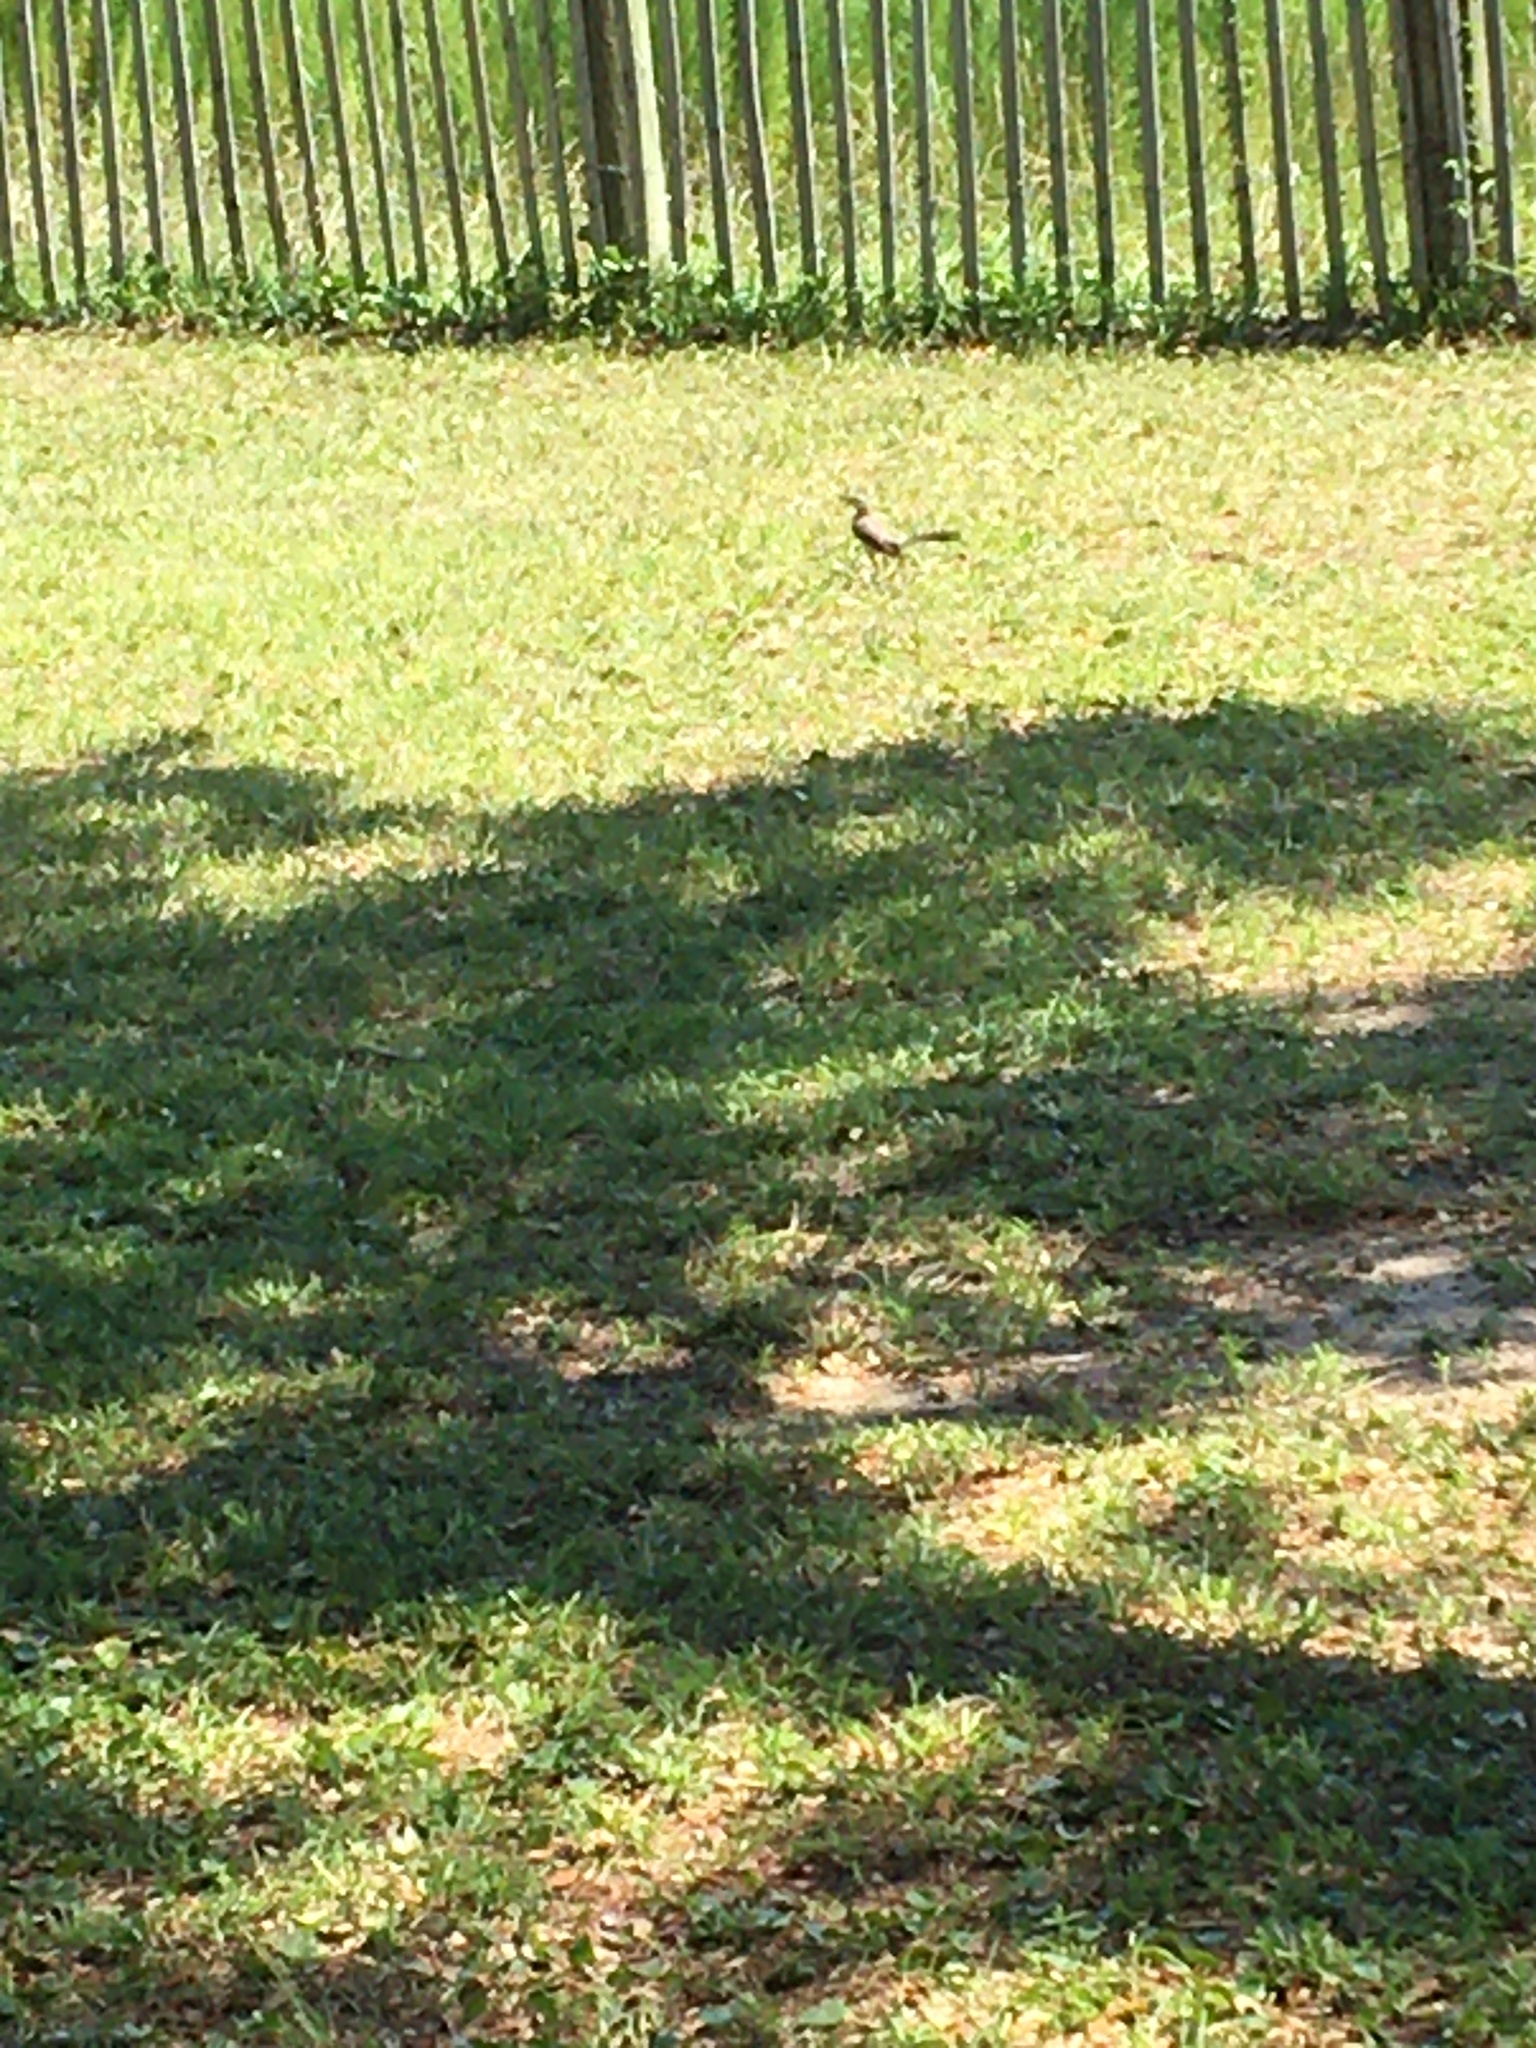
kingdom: Animalia
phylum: Chordata
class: Aves
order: Passeriformes
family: Mimidae
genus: Mimus
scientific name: Mimus polyglottos
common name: Northern mockingbird
